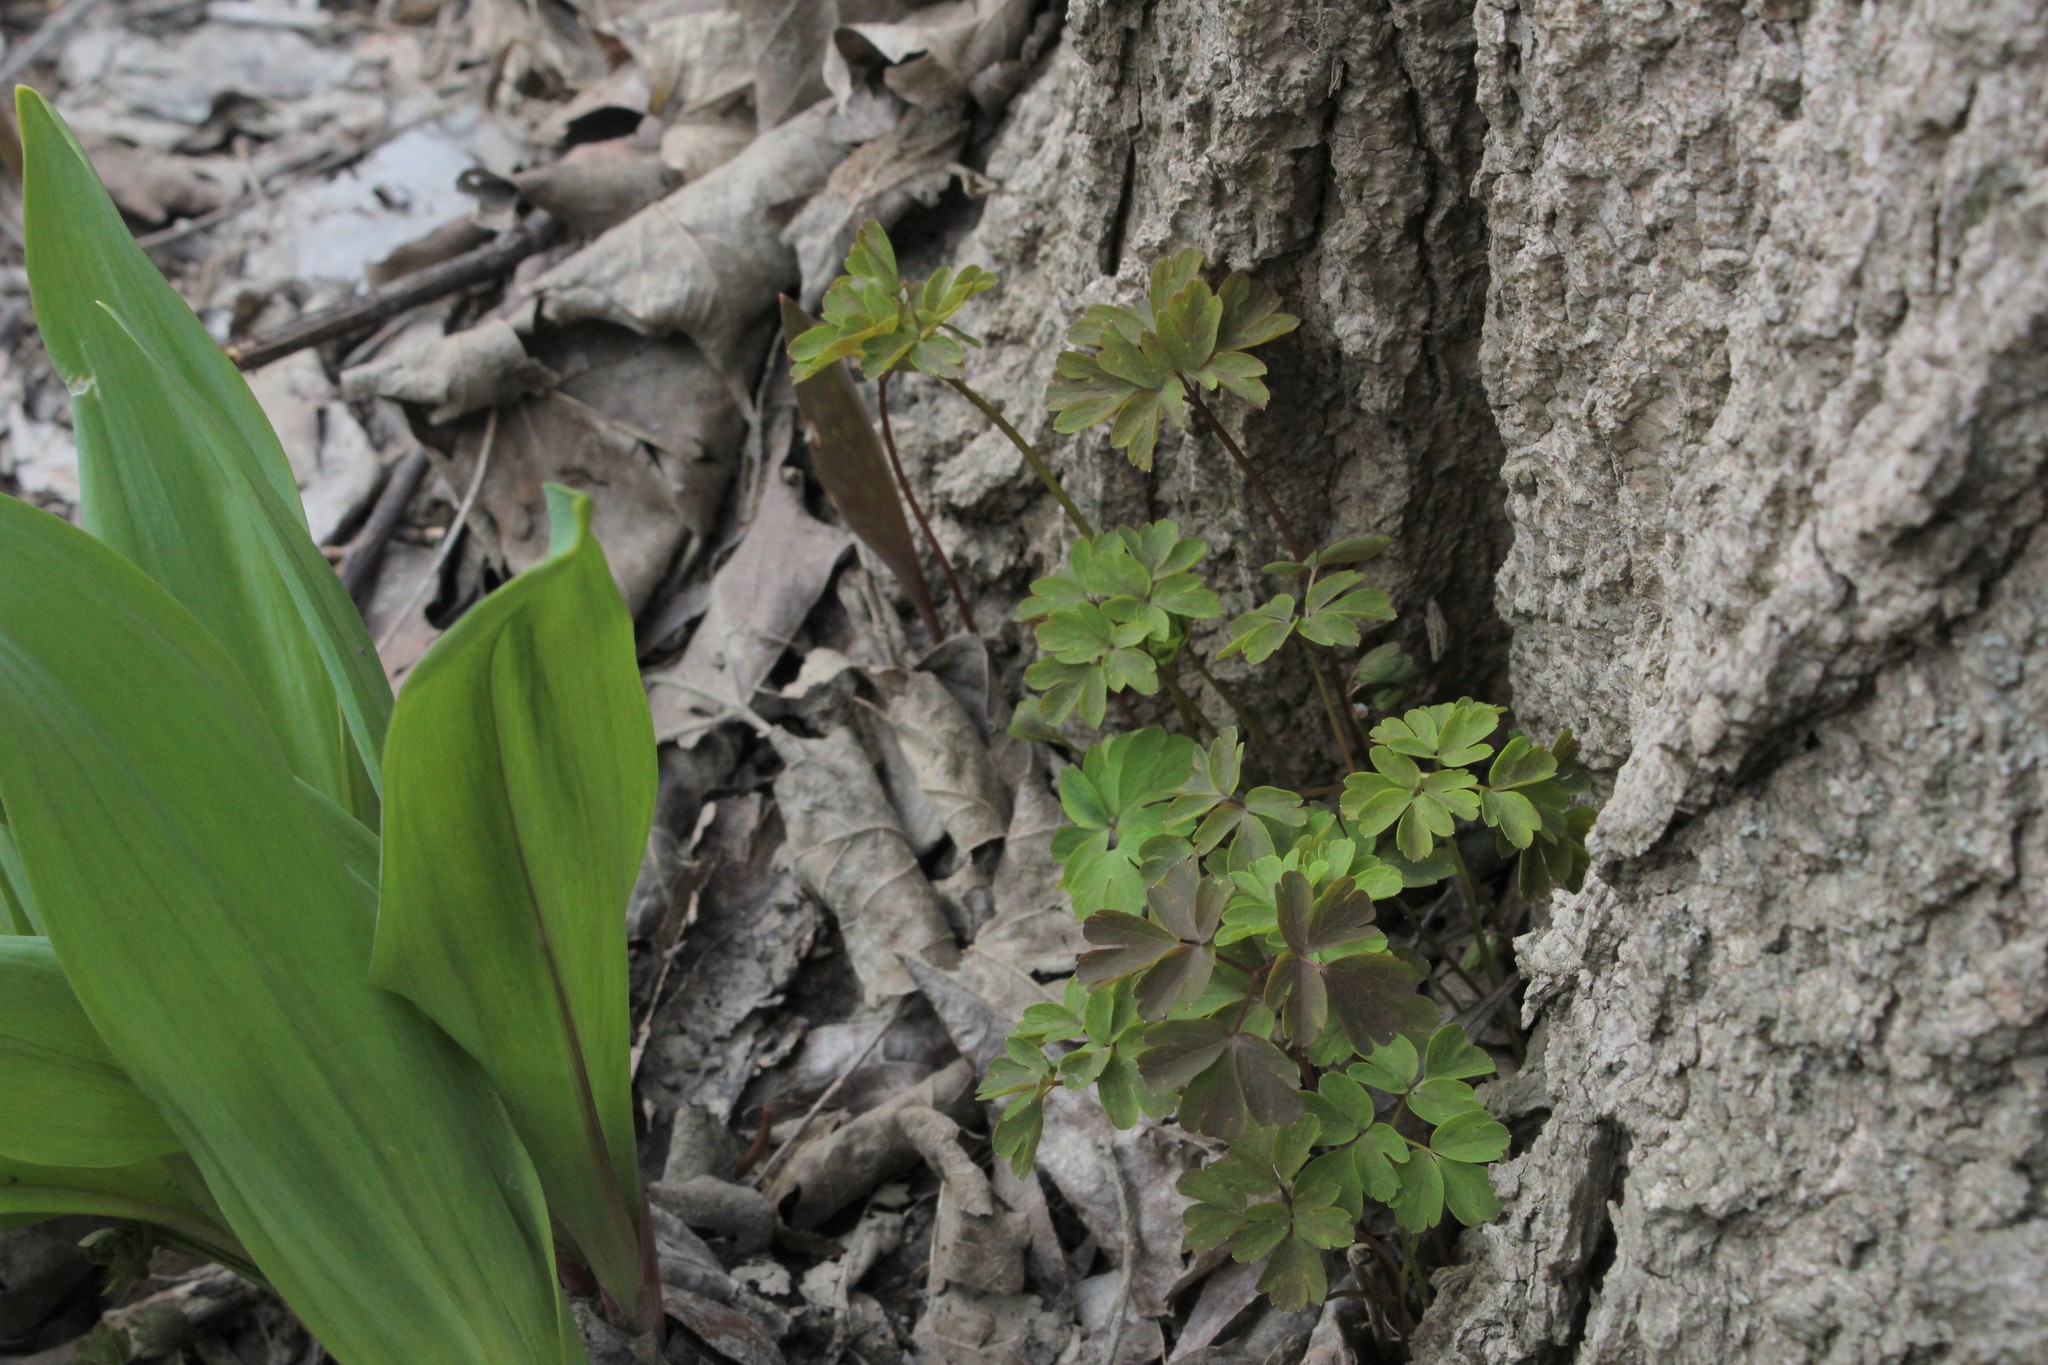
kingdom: Plantae
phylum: Tracheophyta
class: Magnoliopsida
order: Ranunculales
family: Ranunculaceae
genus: Enemion
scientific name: Enemion biternatum
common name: Eastern false rue-anemone
